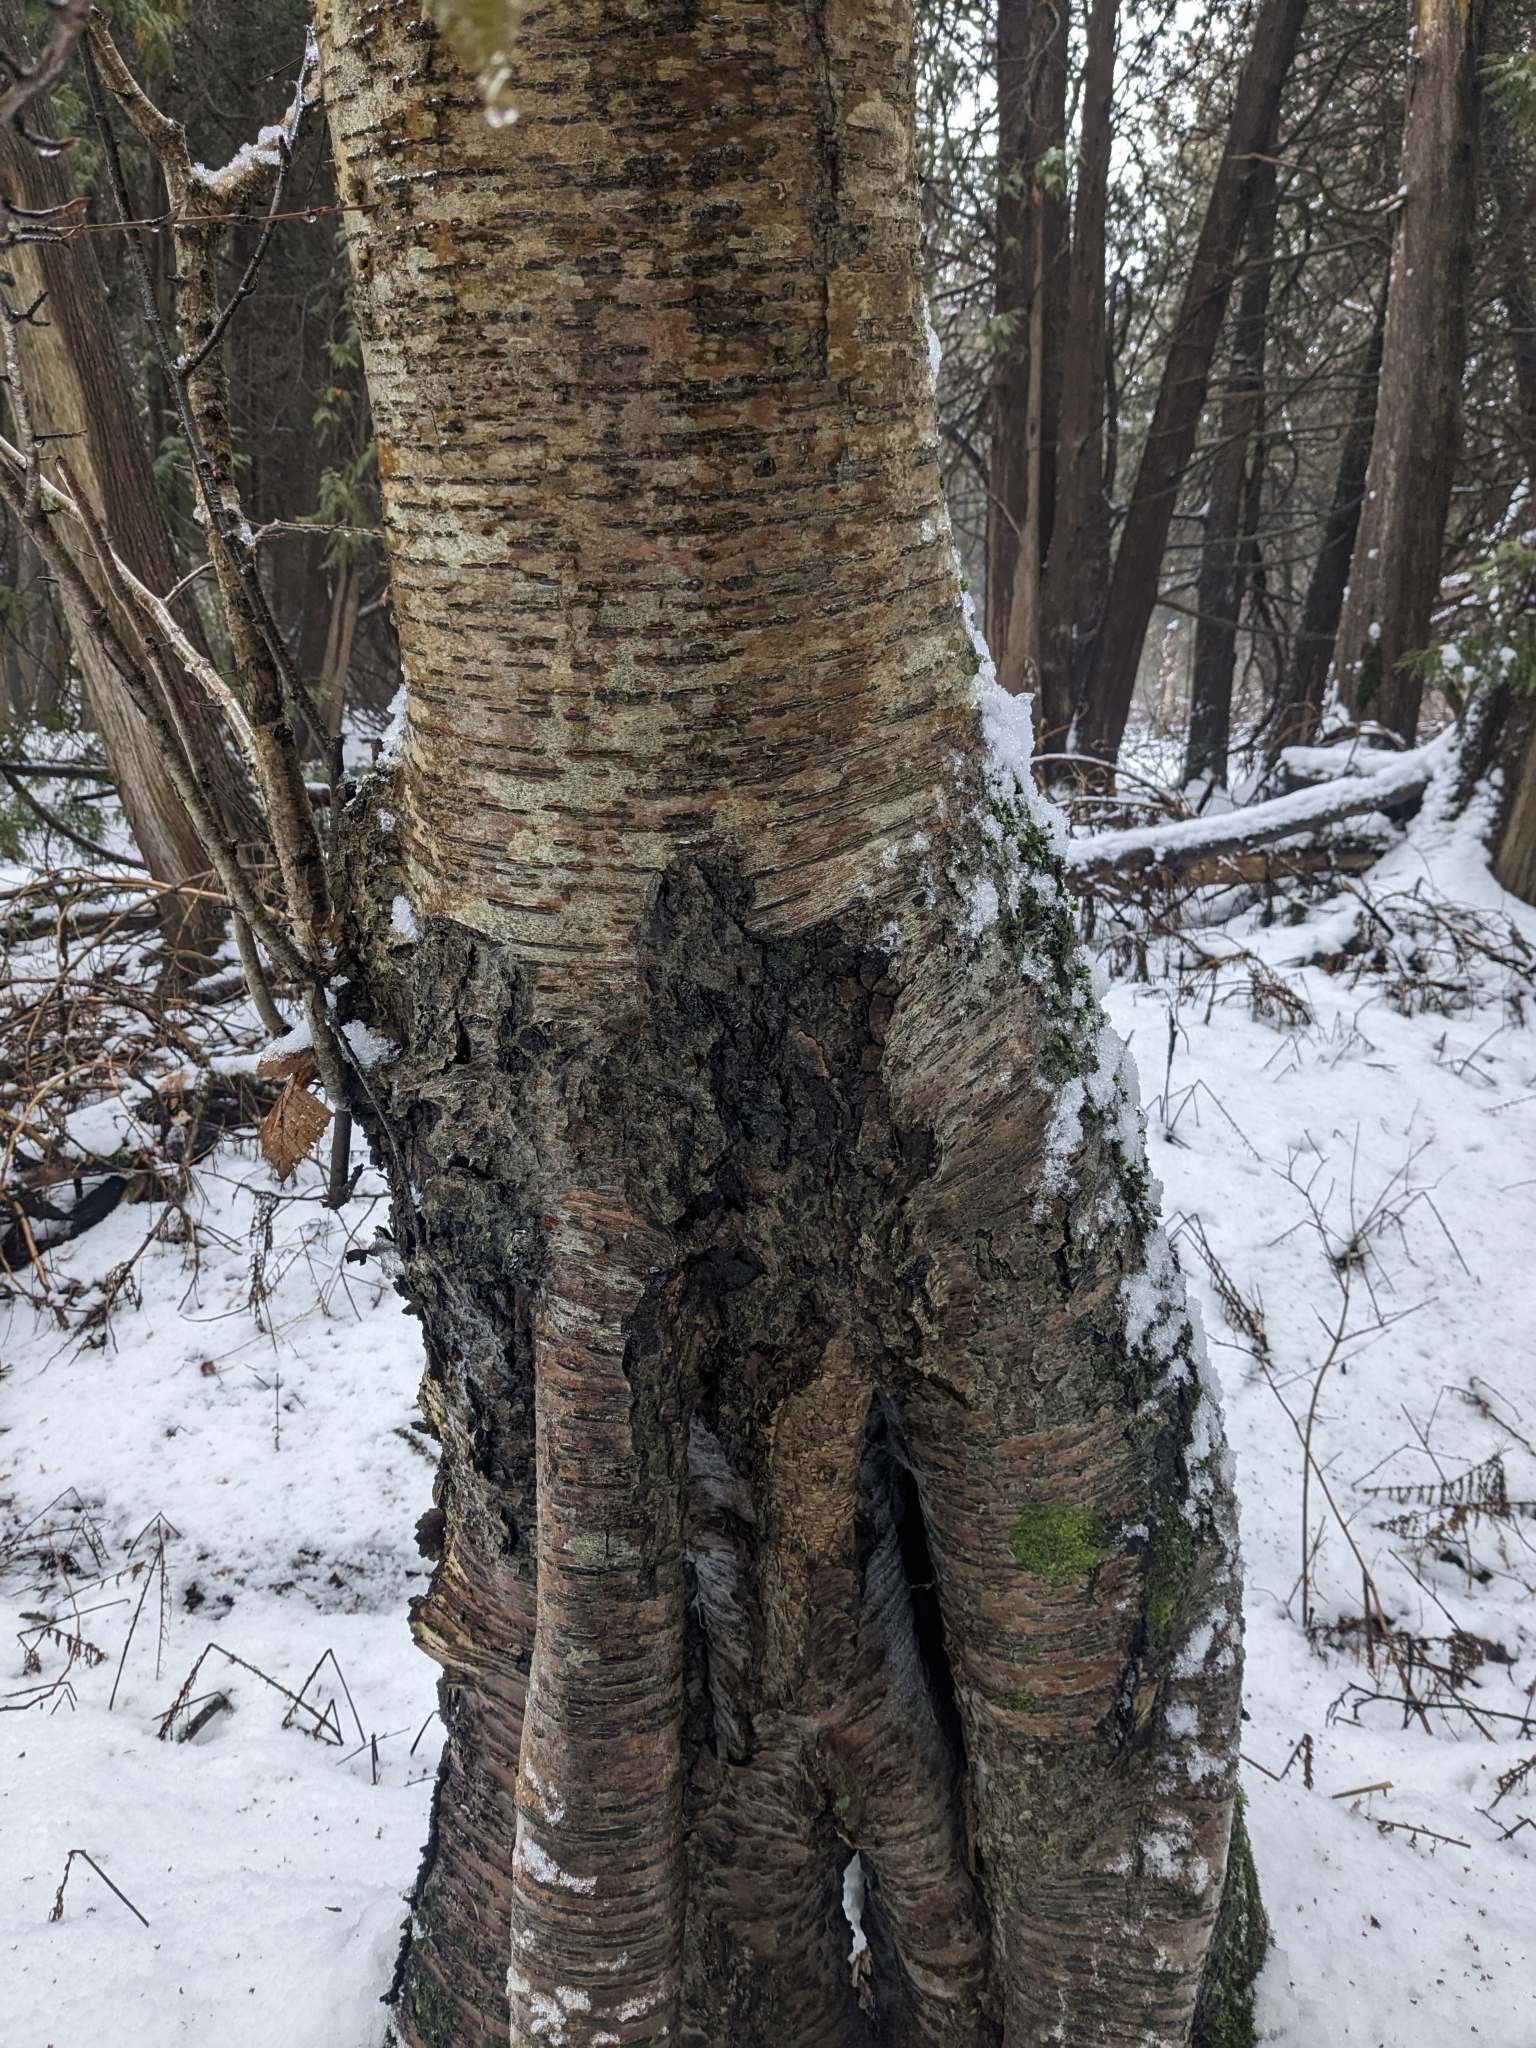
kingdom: Plantae
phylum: Tracheophyta
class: Magnoliopsida
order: Fagales
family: Betulaceae
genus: Betula
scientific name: Betula alleghaniensis
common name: Yellow birch
